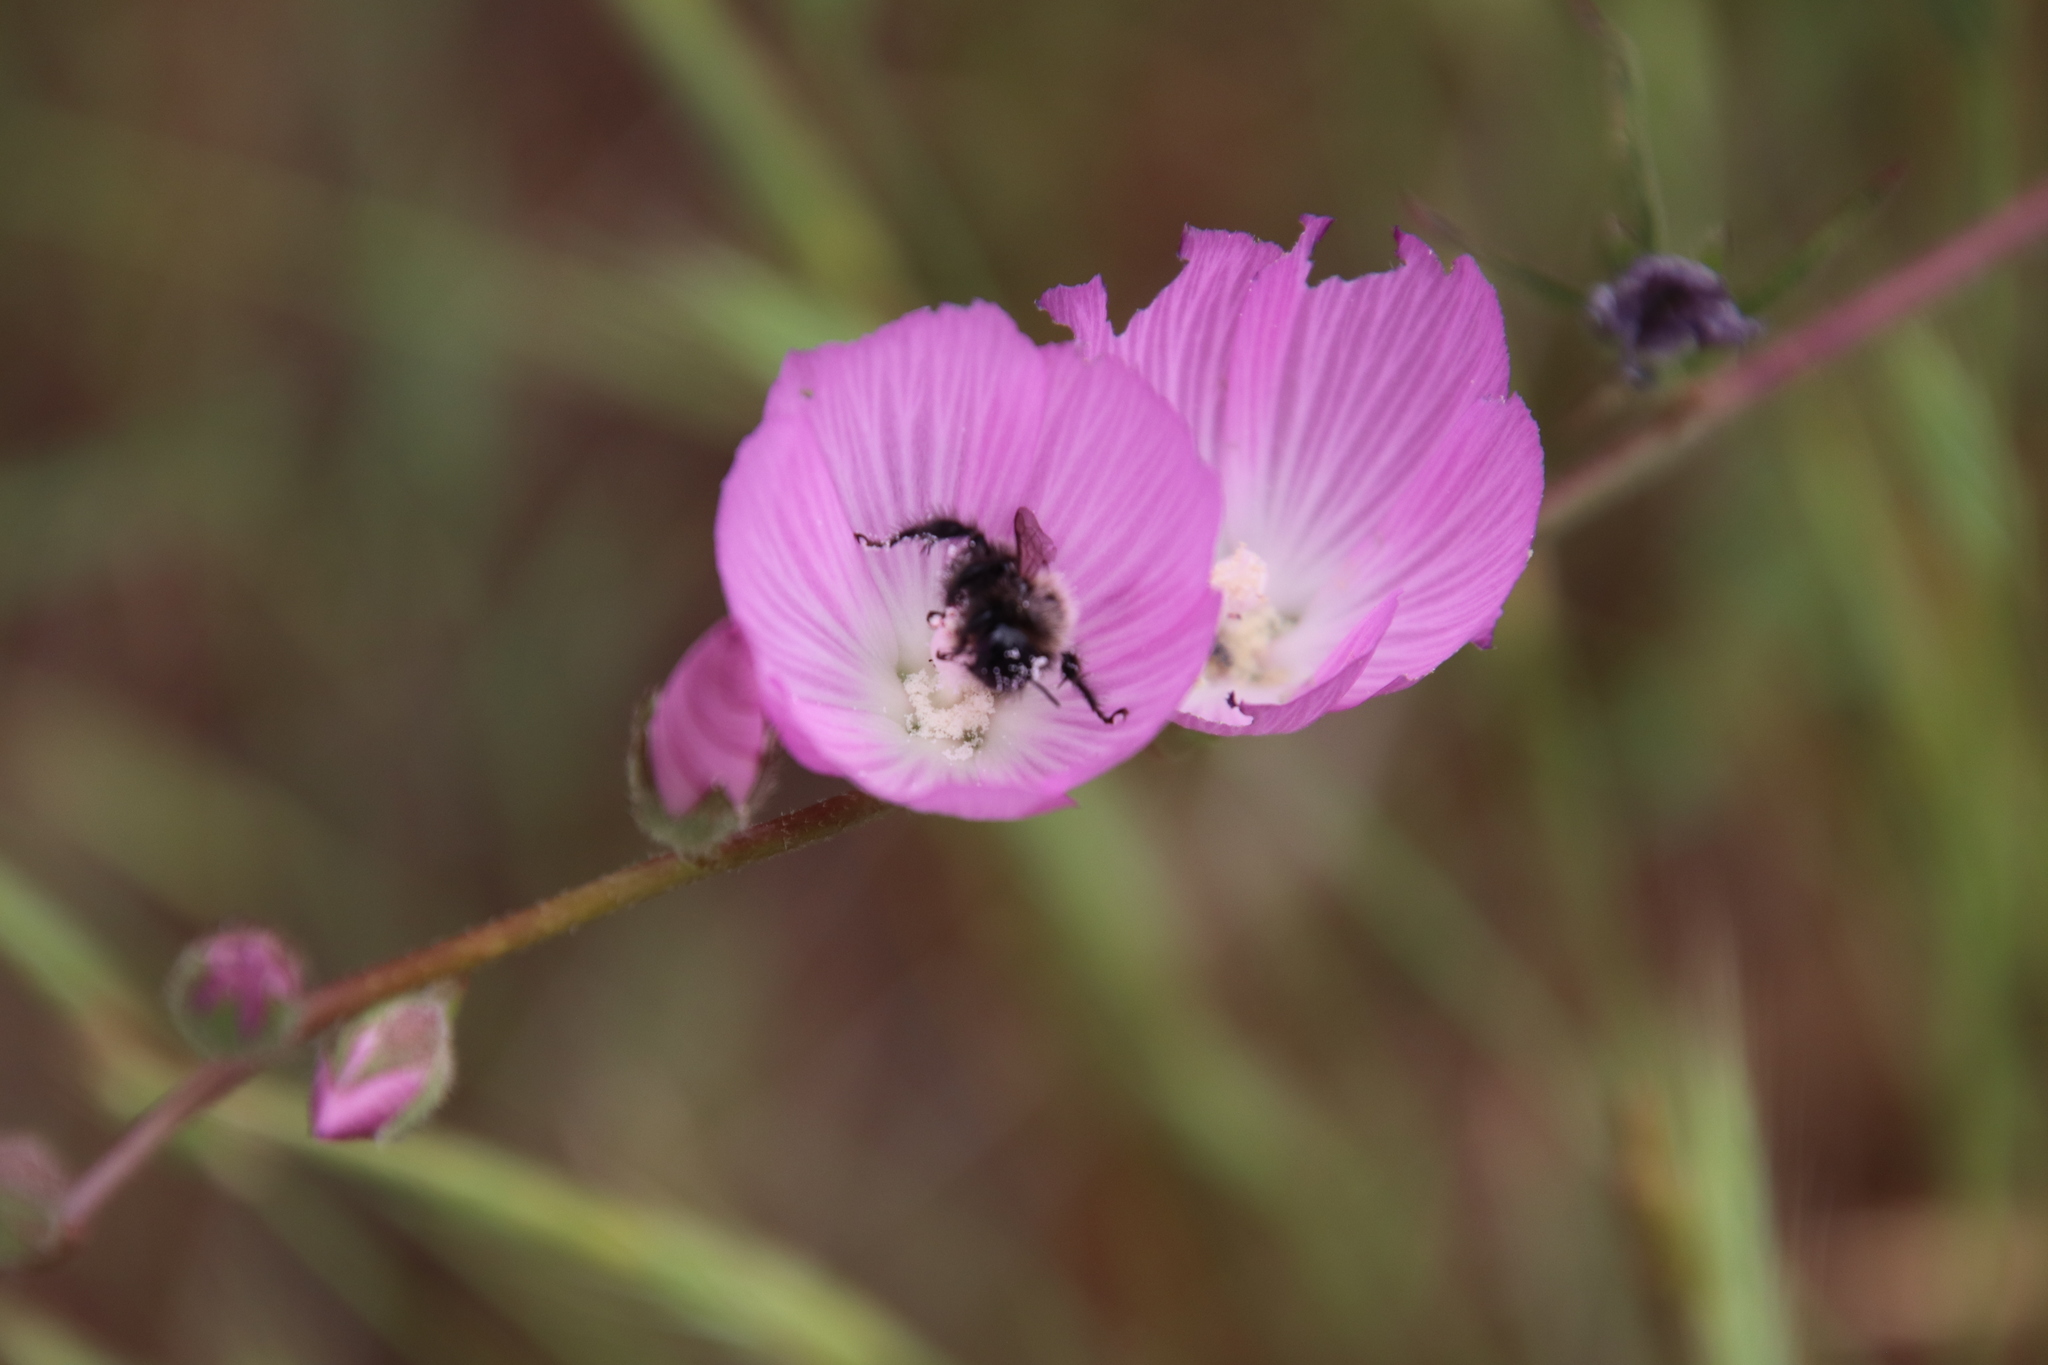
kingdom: Animalia
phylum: Arthropoda
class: Insecta
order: Hymenoptera
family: Apidae
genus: Diadasia
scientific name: Diadasia nigrifrons
